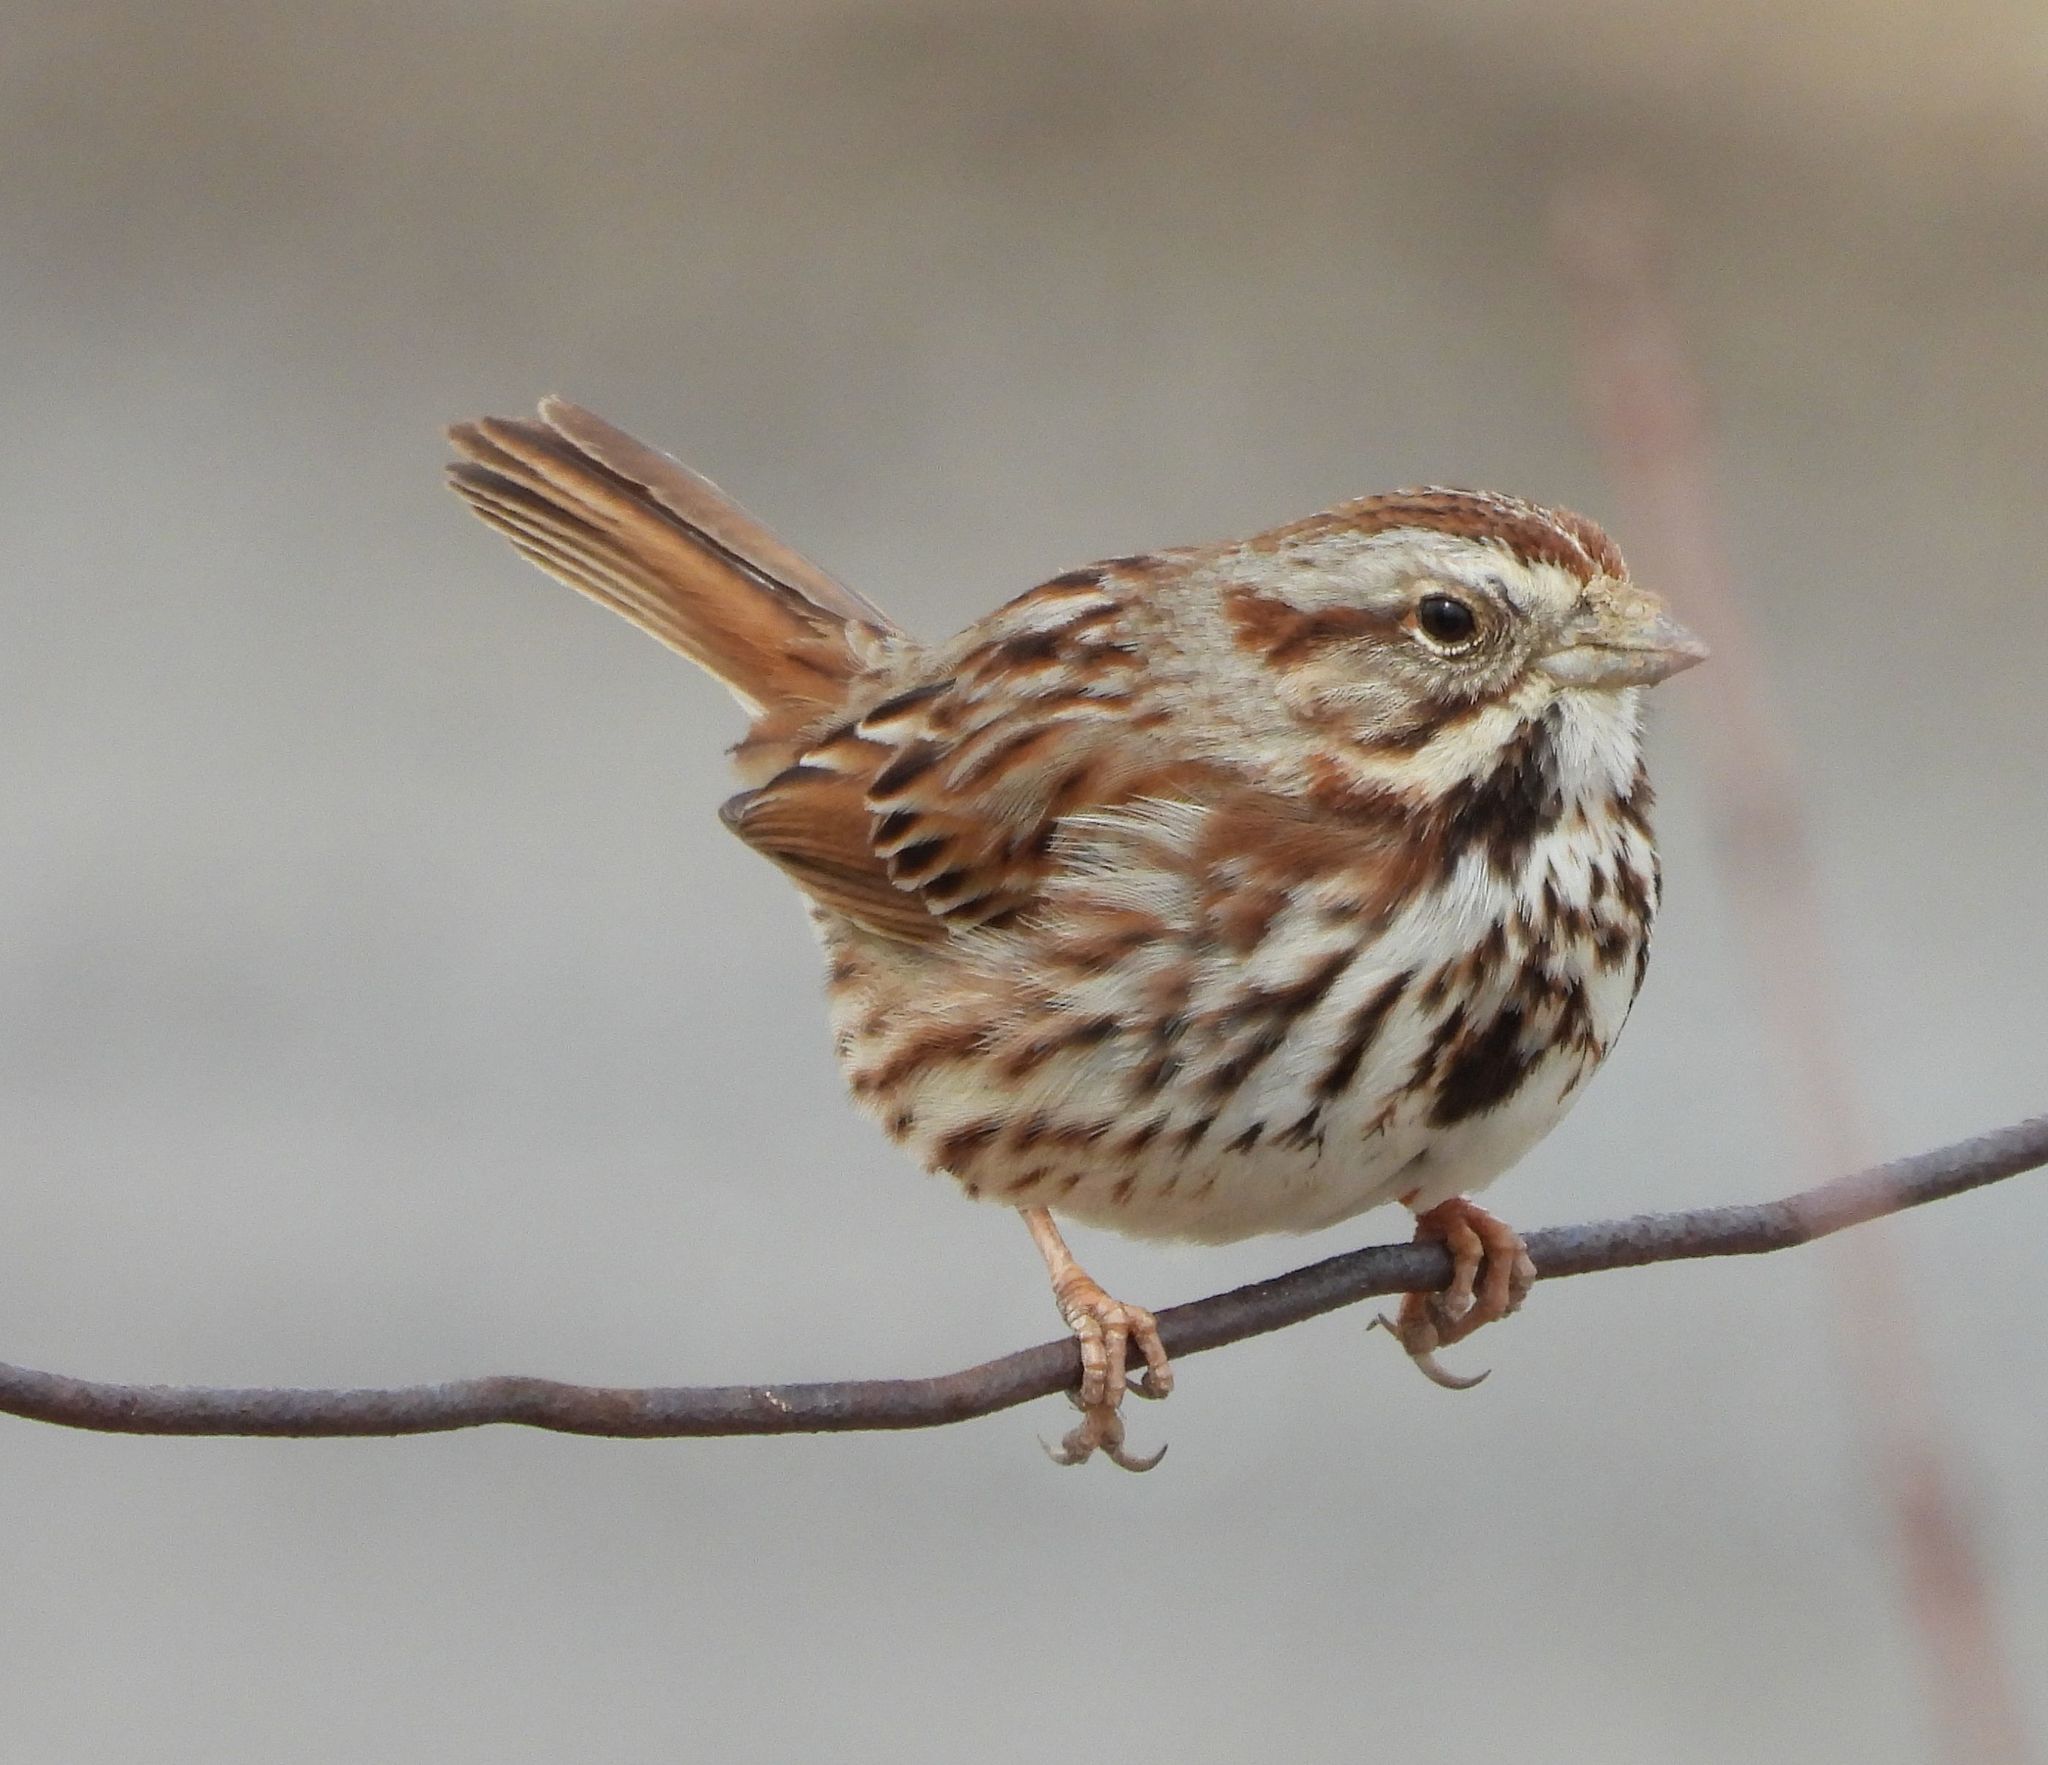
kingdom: Animalia
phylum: Chordata
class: Aves
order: Passeriformes
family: Passerellidae
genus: Melospiza
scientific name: Melospiza melodia
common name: Song sparrow
